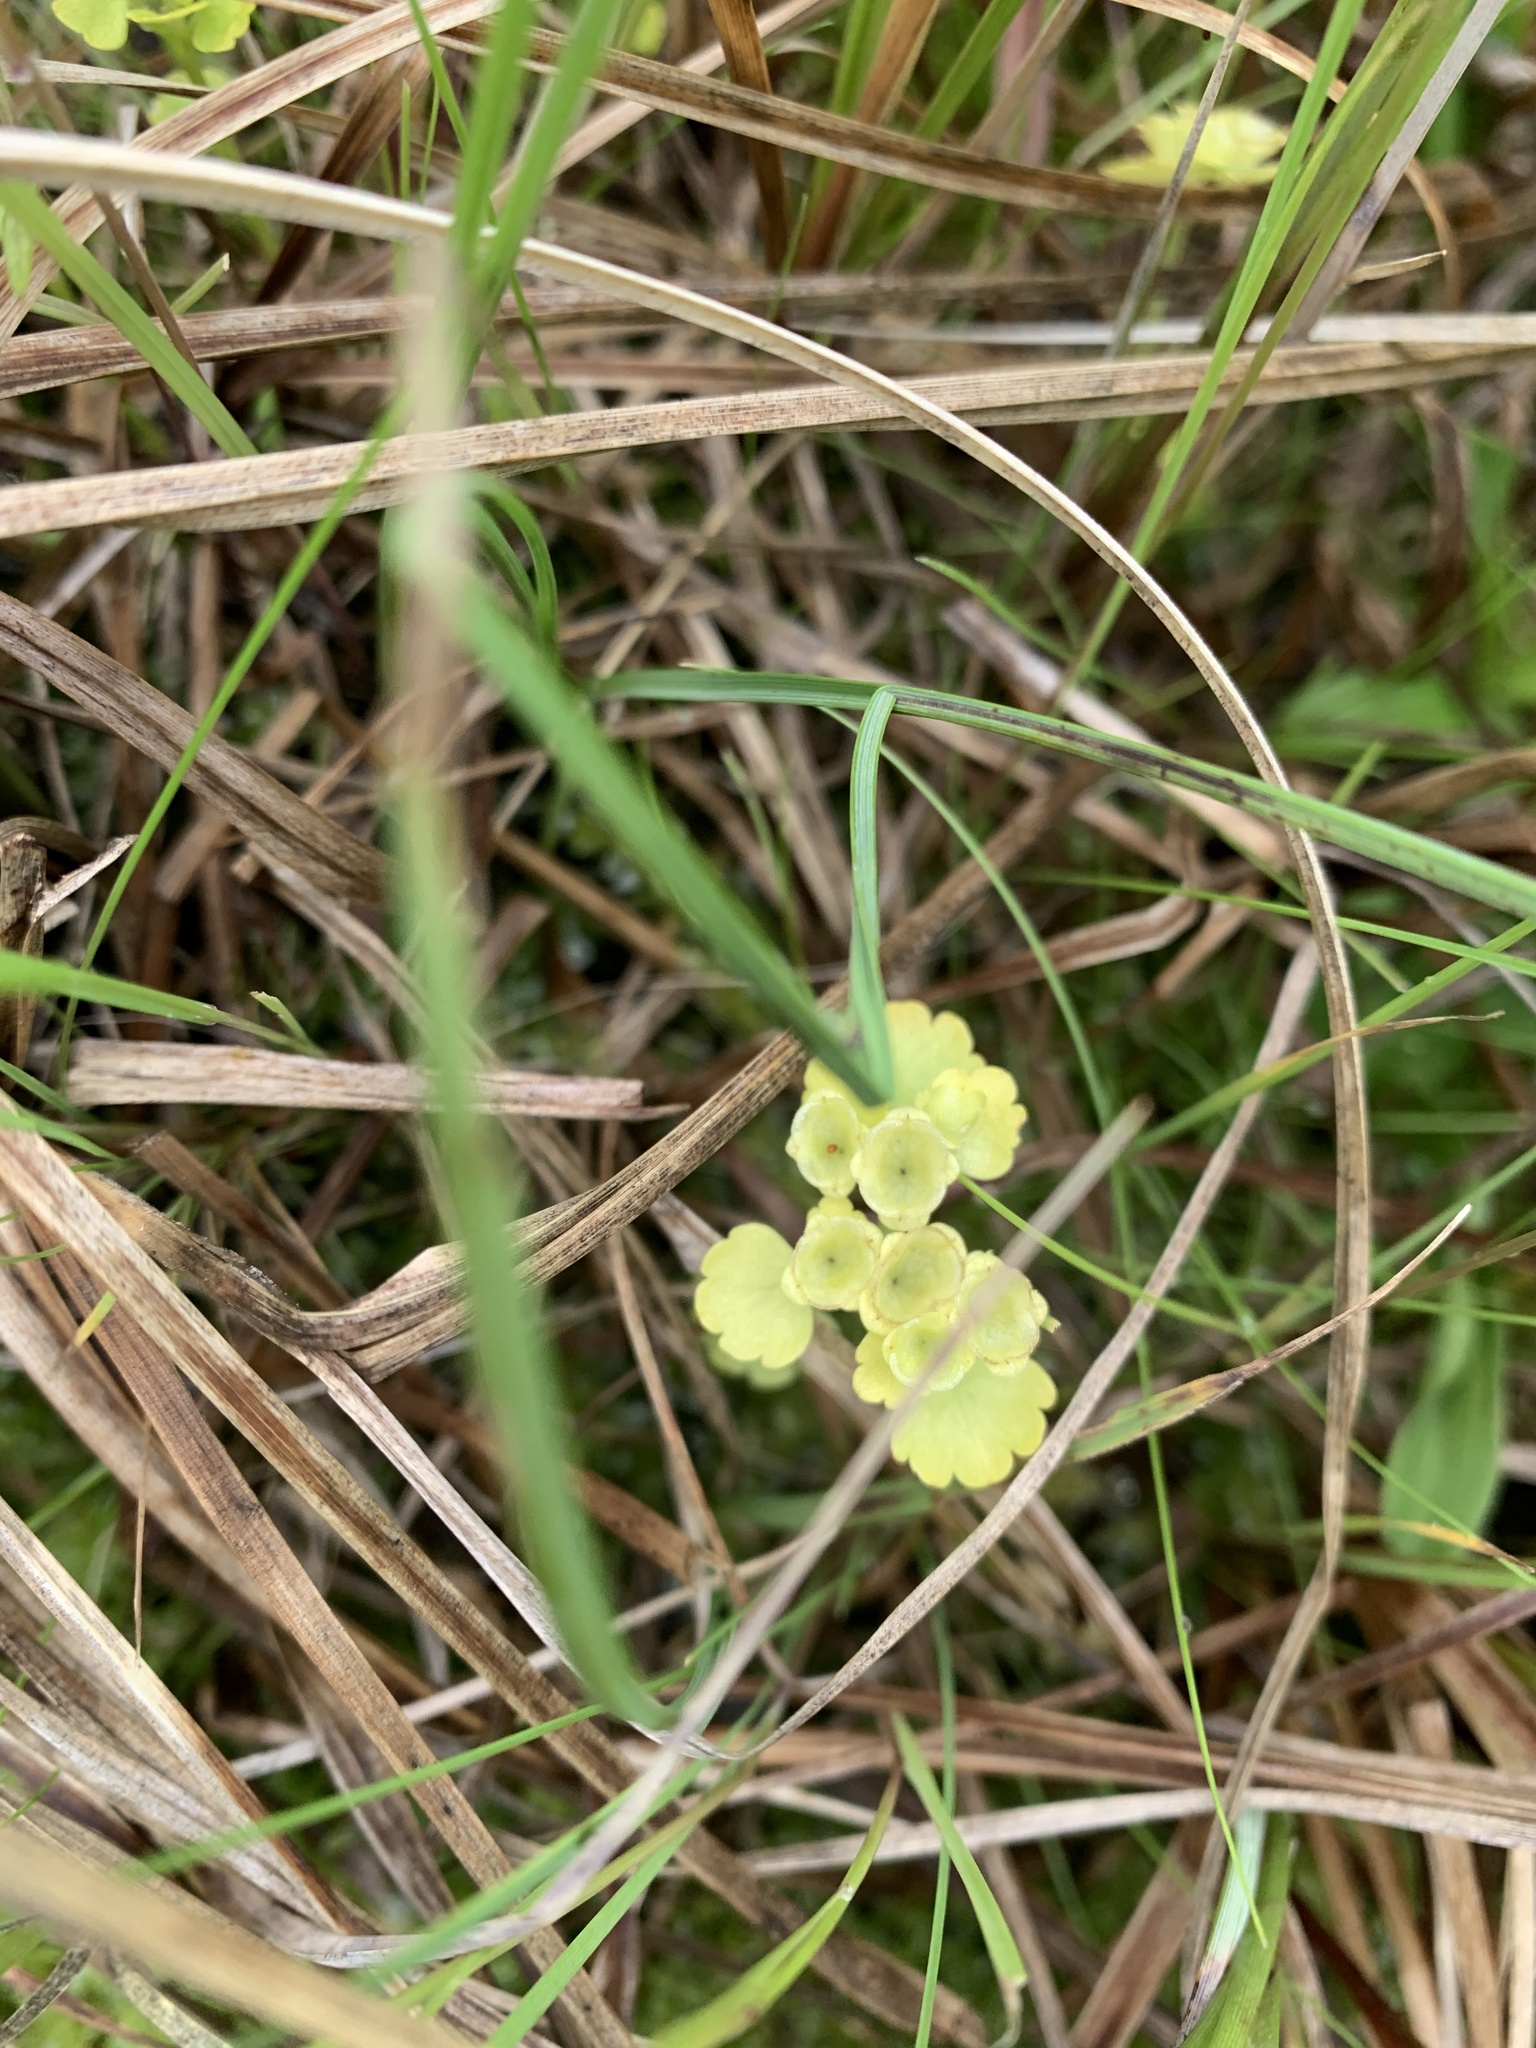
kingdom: Plantae
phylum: Tracheophyta
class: Magnoliopsida
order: Saxifragales
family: Saxifragaceae
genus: Chrysosplenium
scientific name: Chrysosplenium iowense
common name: Iowa golden carpet
